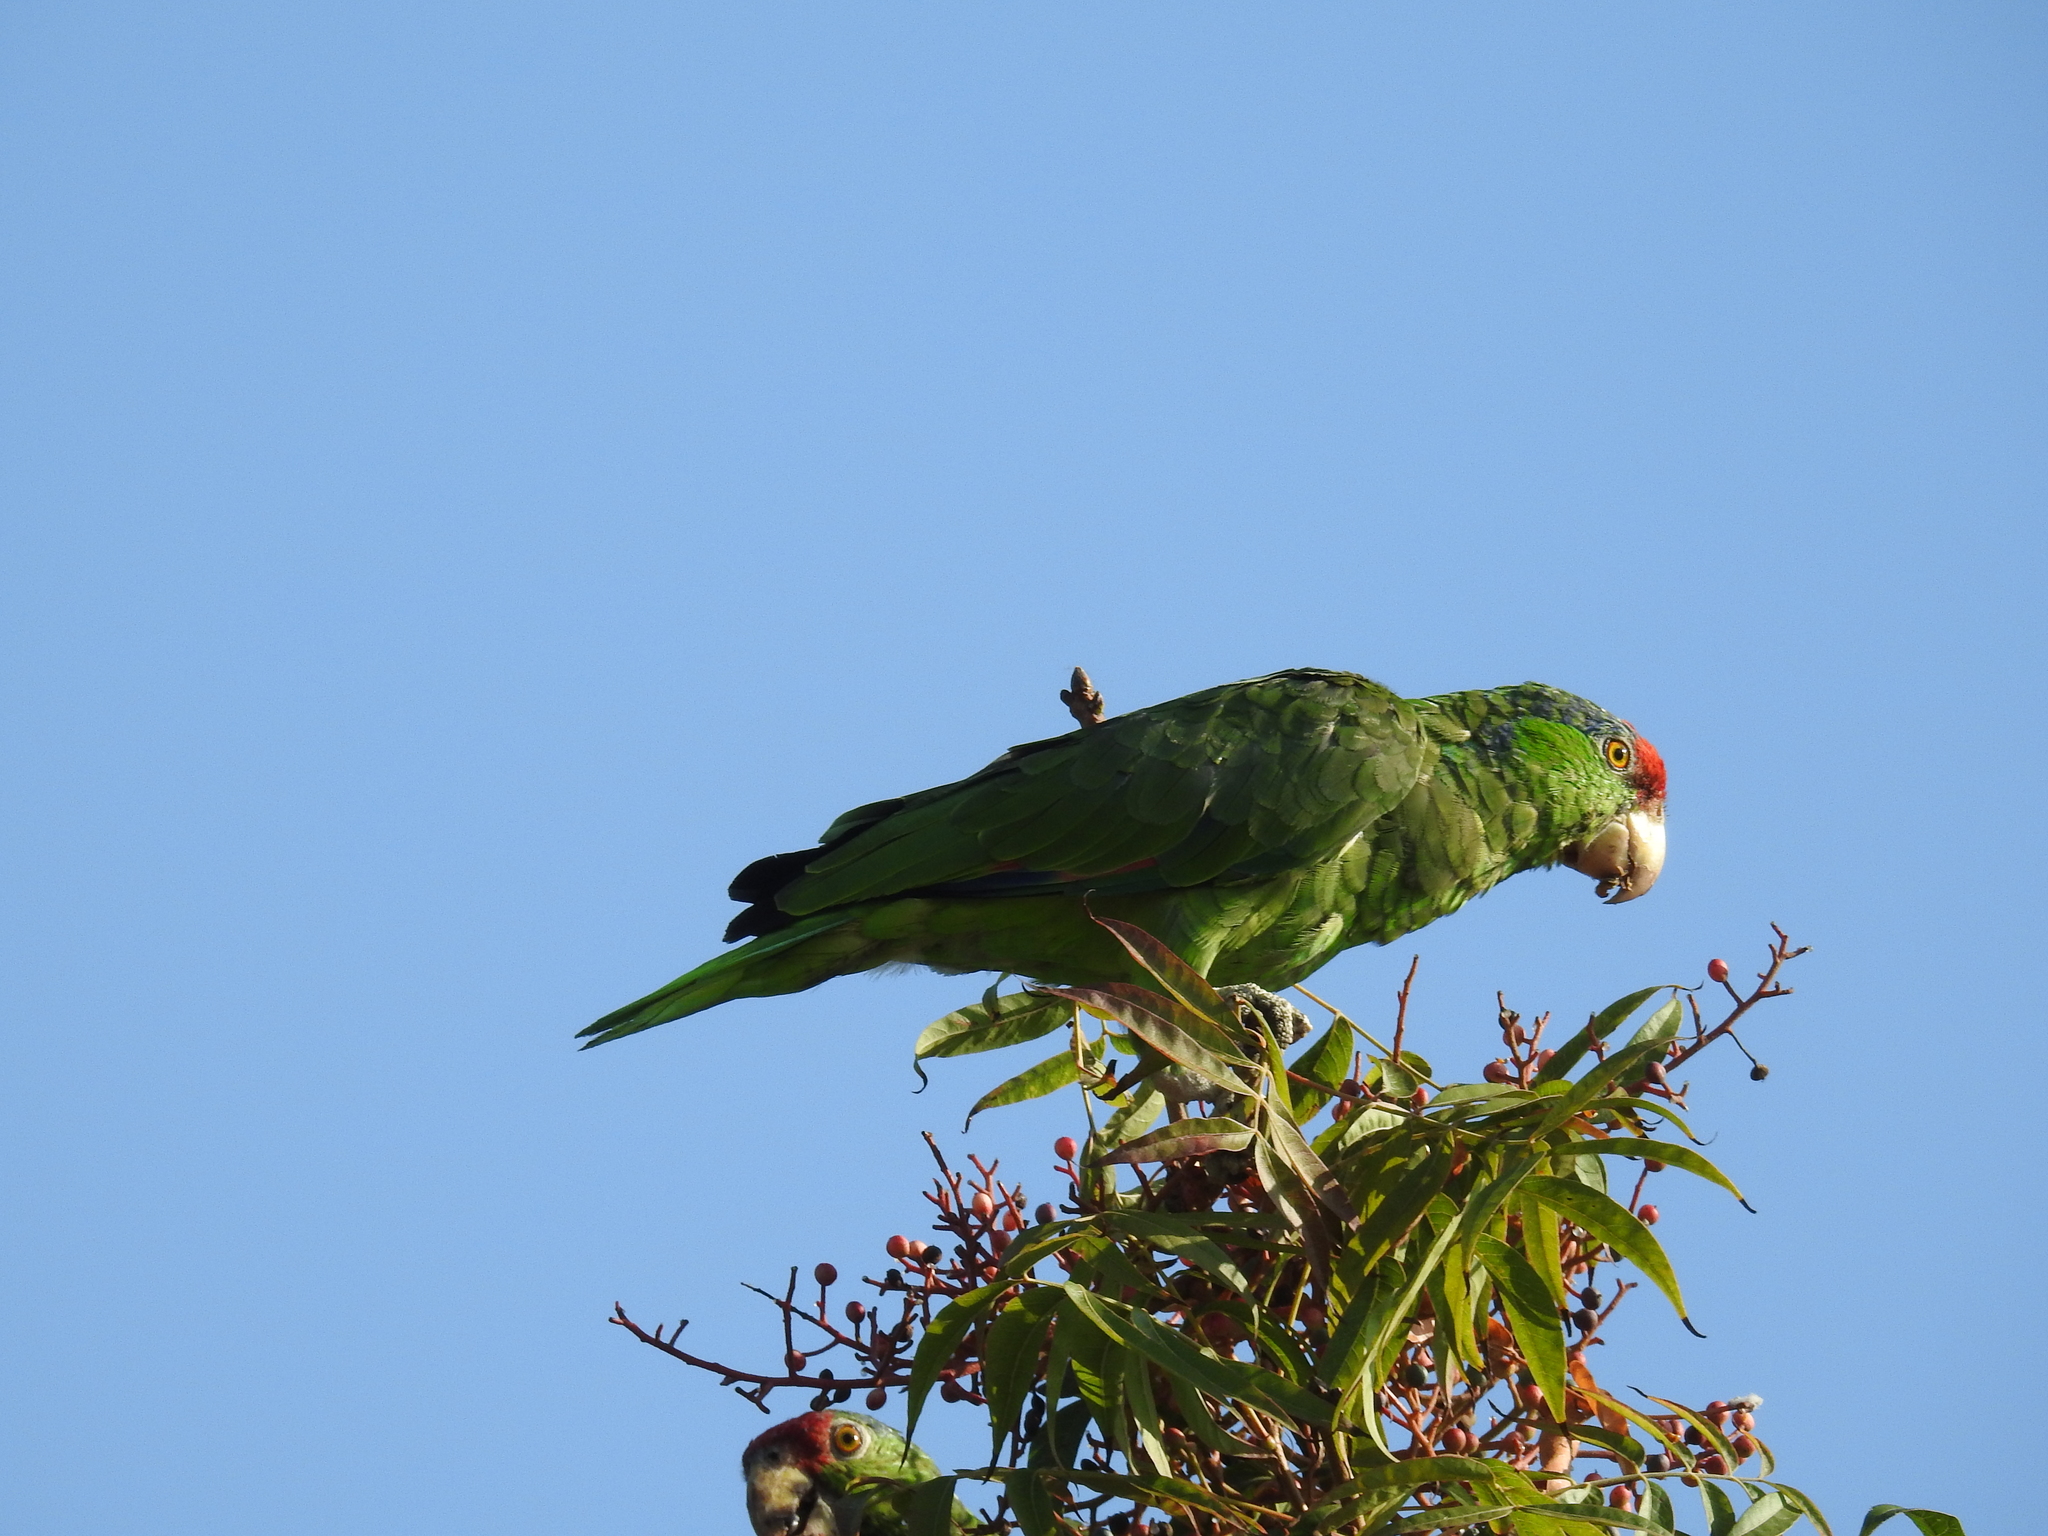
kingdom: Animalia
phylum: Chordata
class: Aves
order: Psittaciformes
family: Psittacidae
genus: Amazona
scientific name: Amazona viridigenalis
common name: Red-crowned amazon
